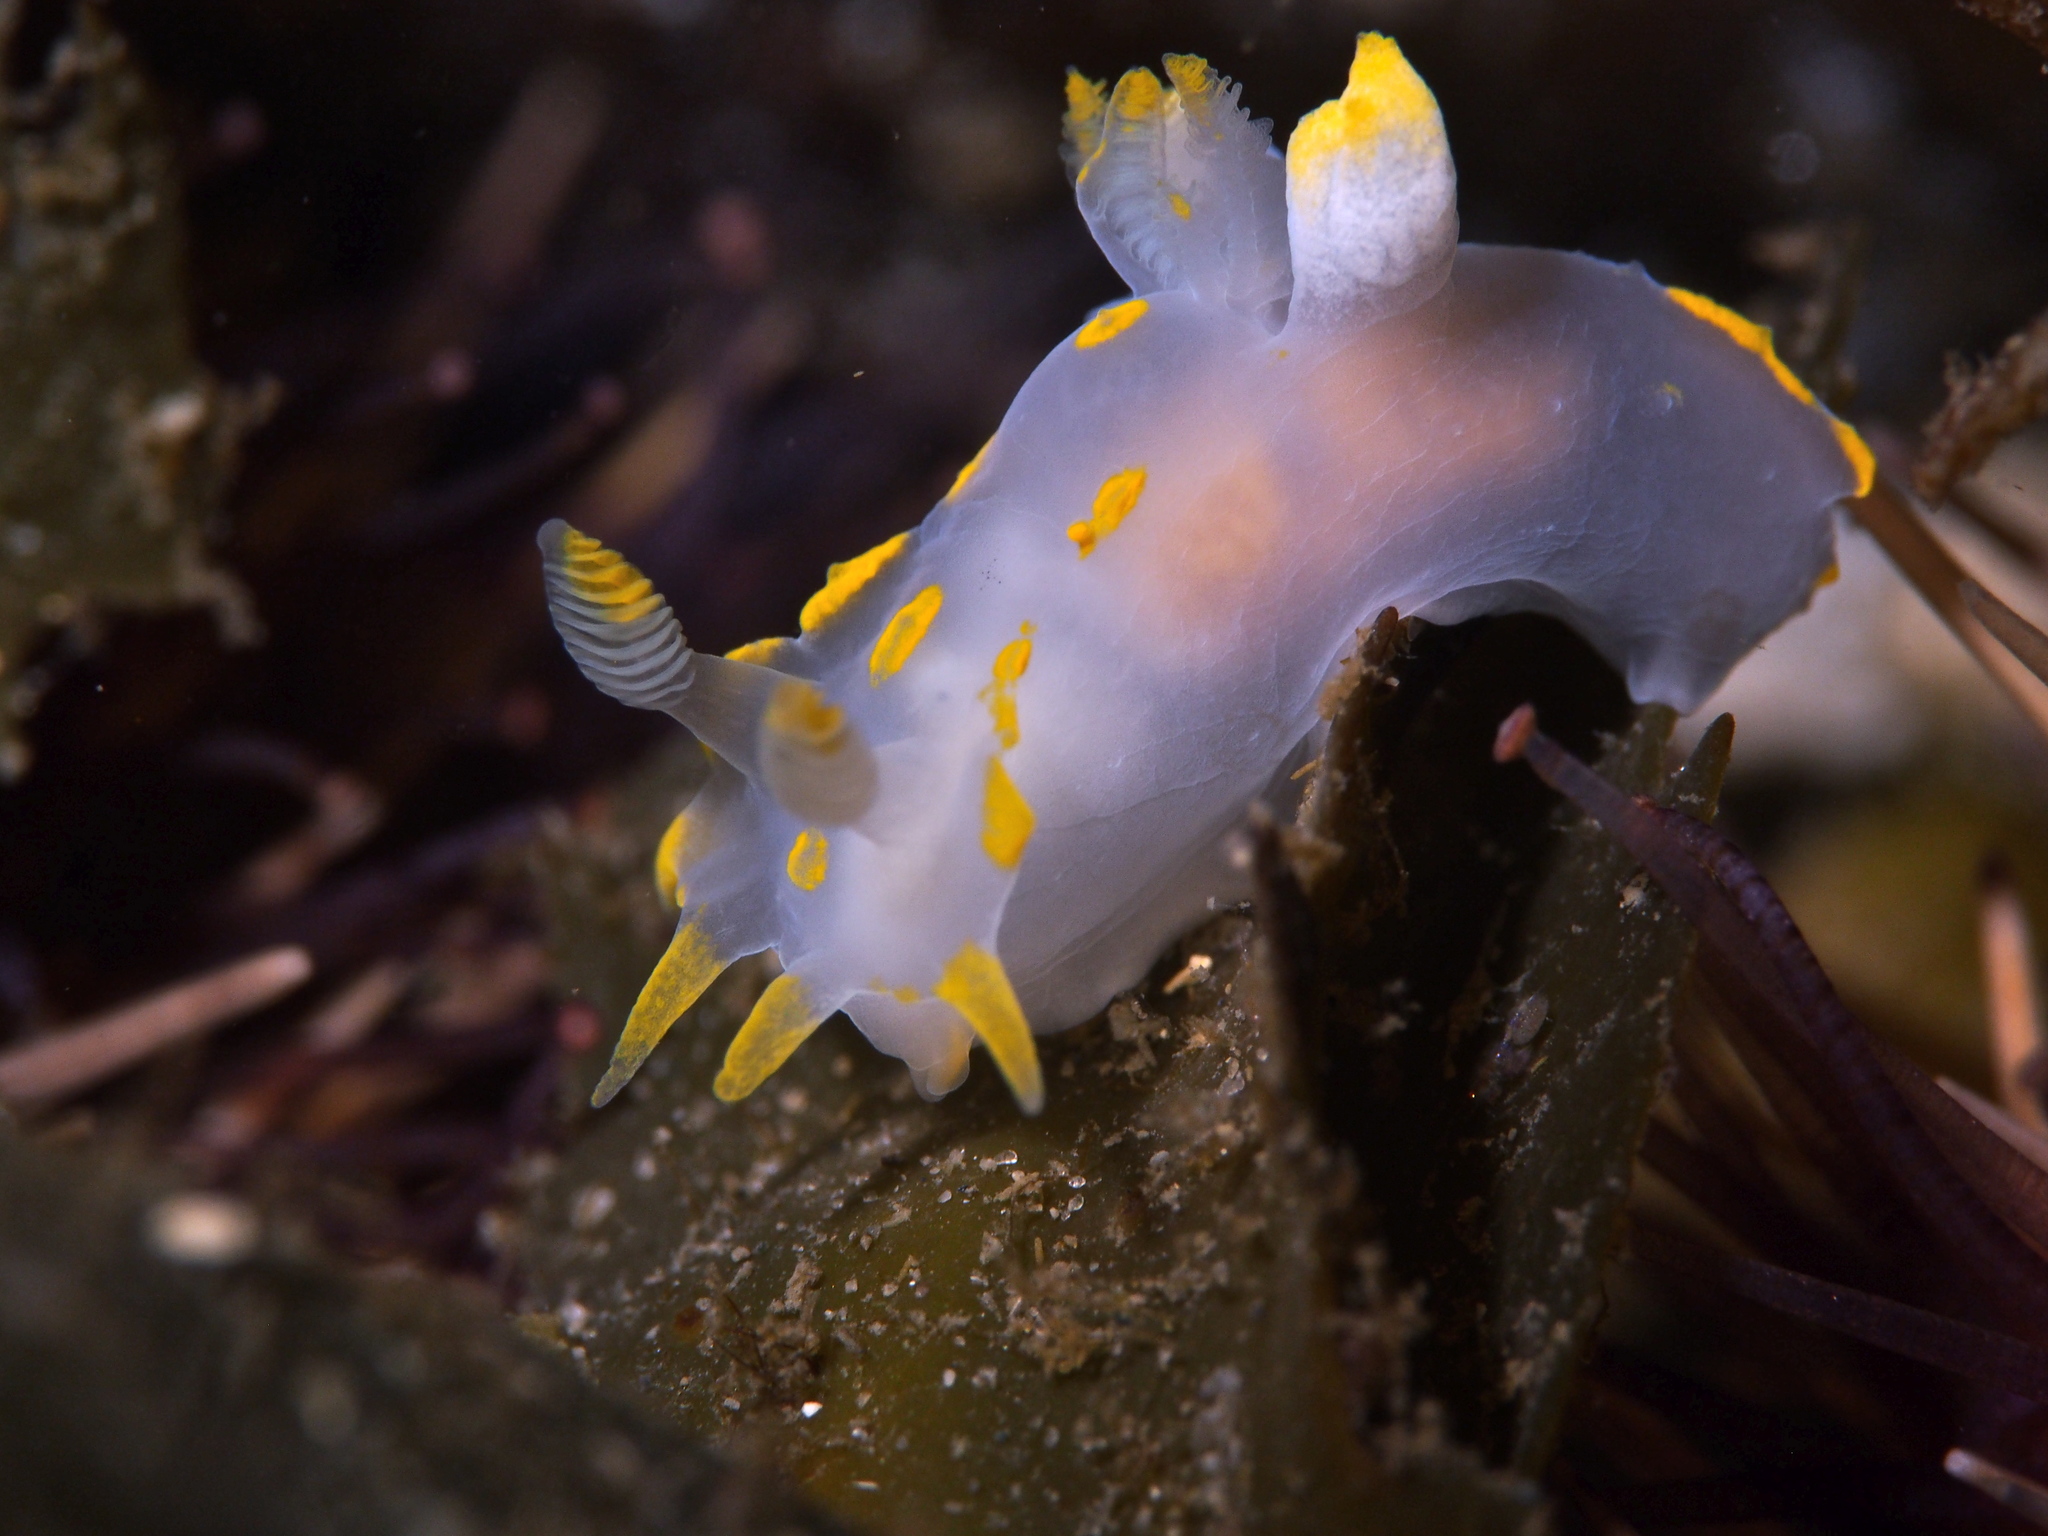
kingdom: Animalia
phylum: Mollusca
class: Gastropoda
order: Nudibranchia
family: Polyceridae
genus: Polycera
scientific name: Polycera quadrilineata
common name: Four-striped polycera
